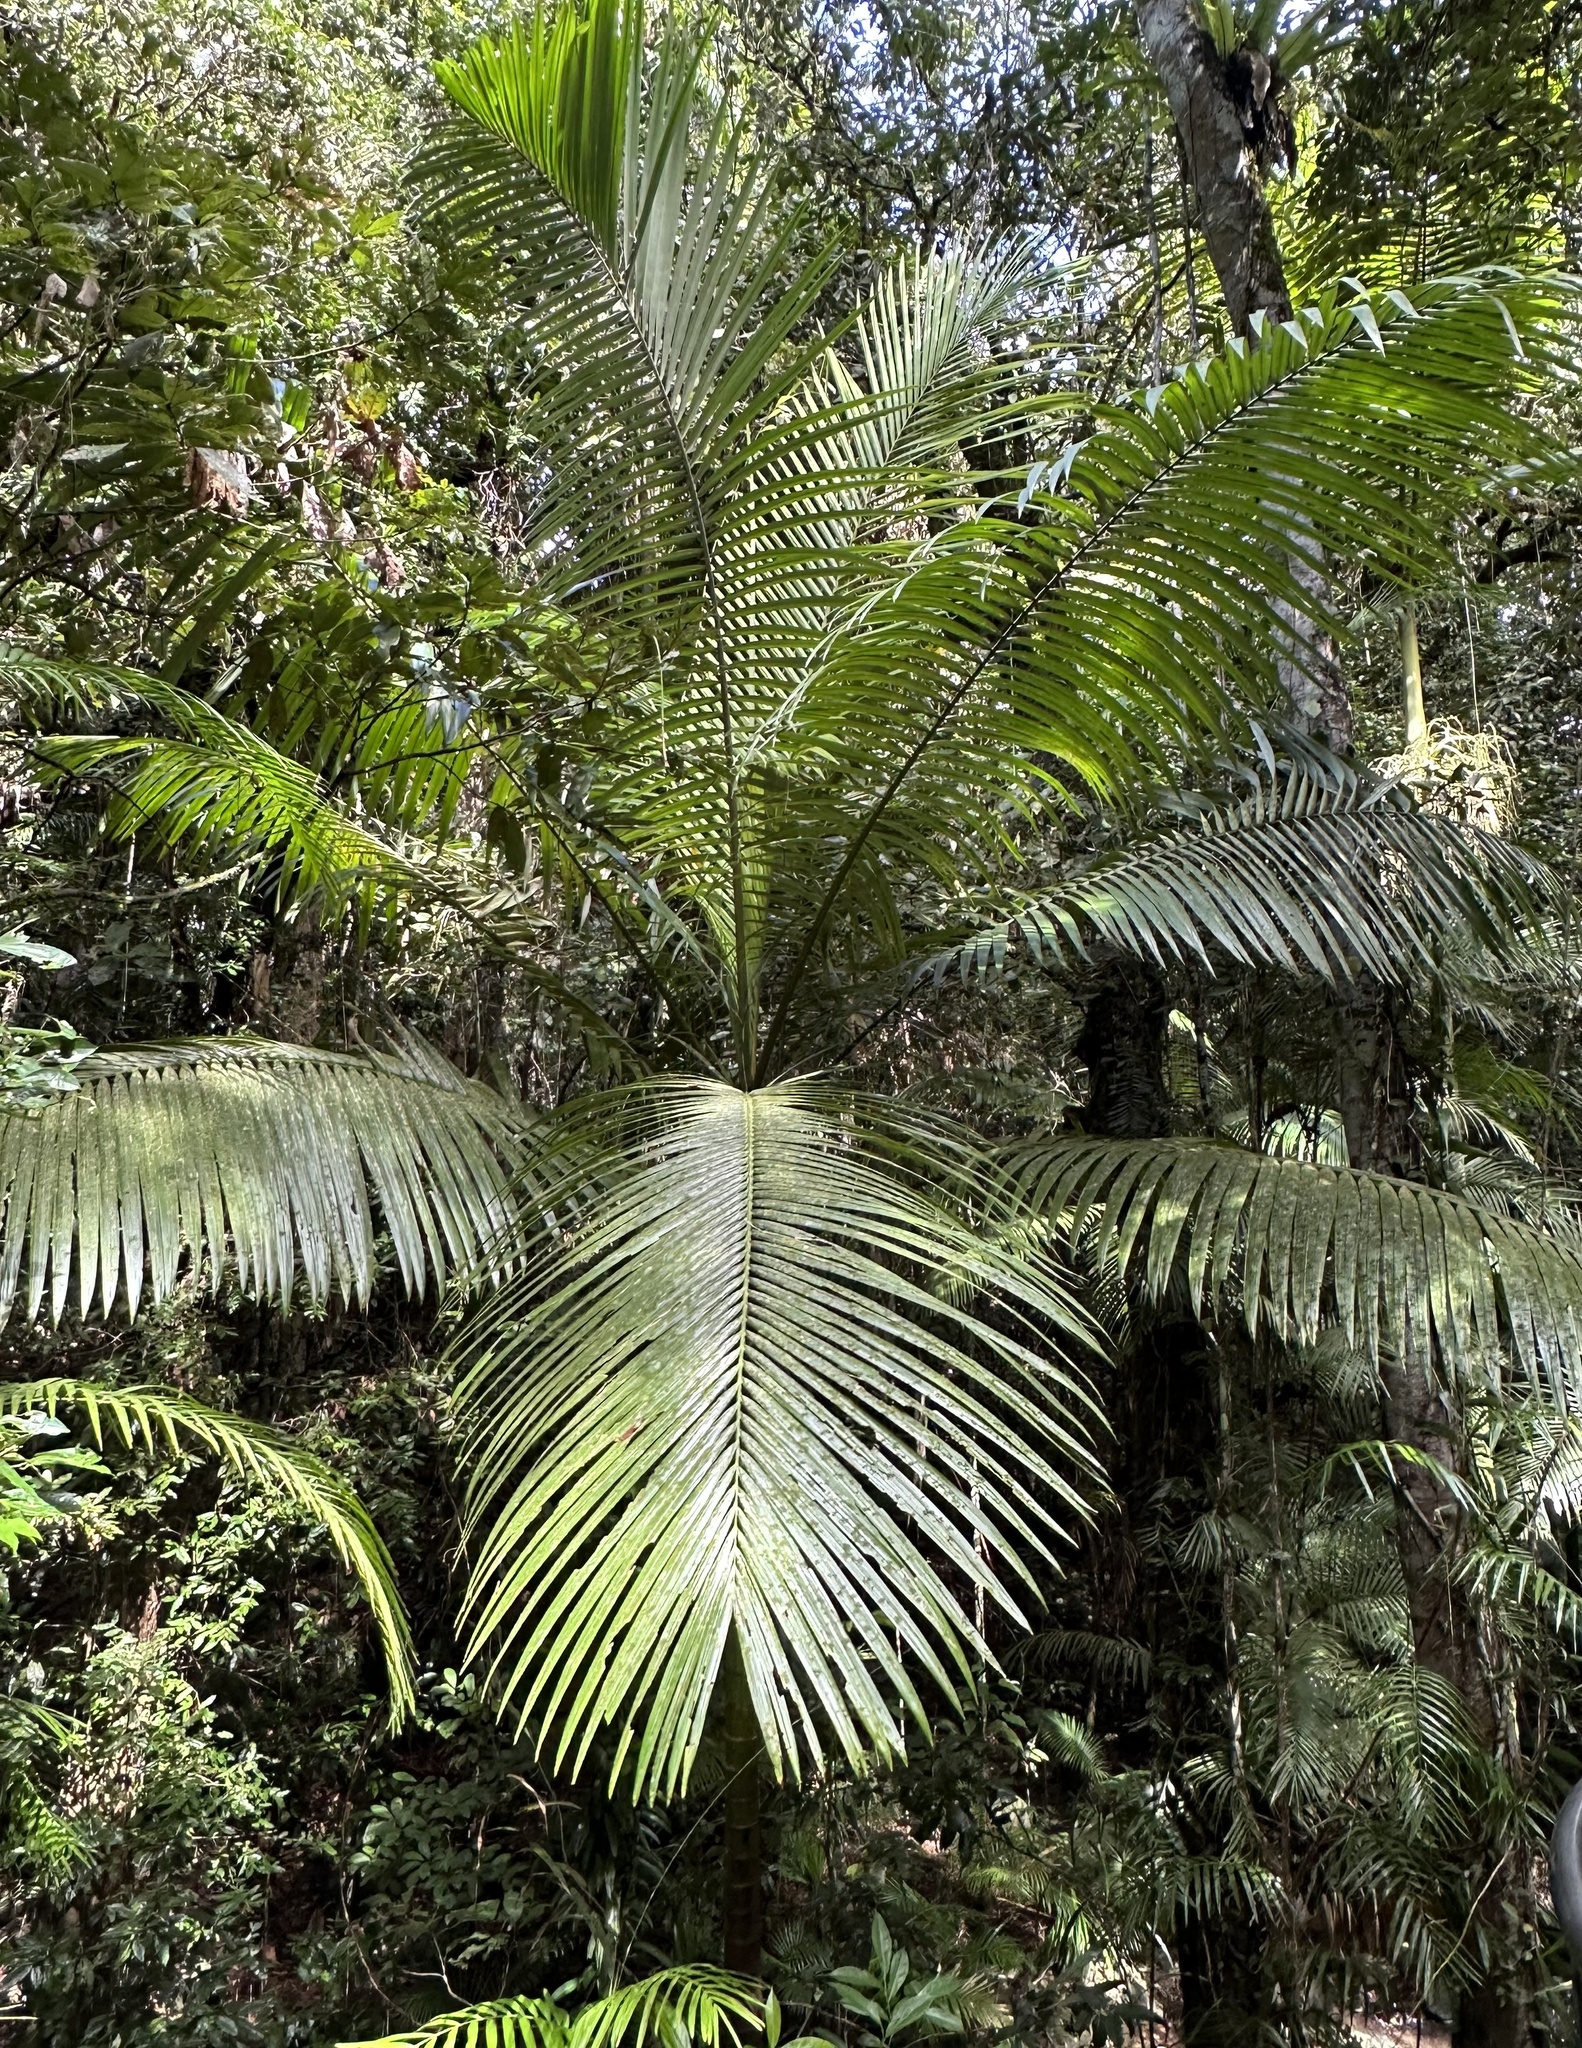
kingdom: Plantae
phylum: Tracheophyta
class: Liliopsida
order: Arecales
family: Arecaceae
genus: Archontophoenix
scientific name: Archontophoenix alexandrae
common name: Alexandra palm
